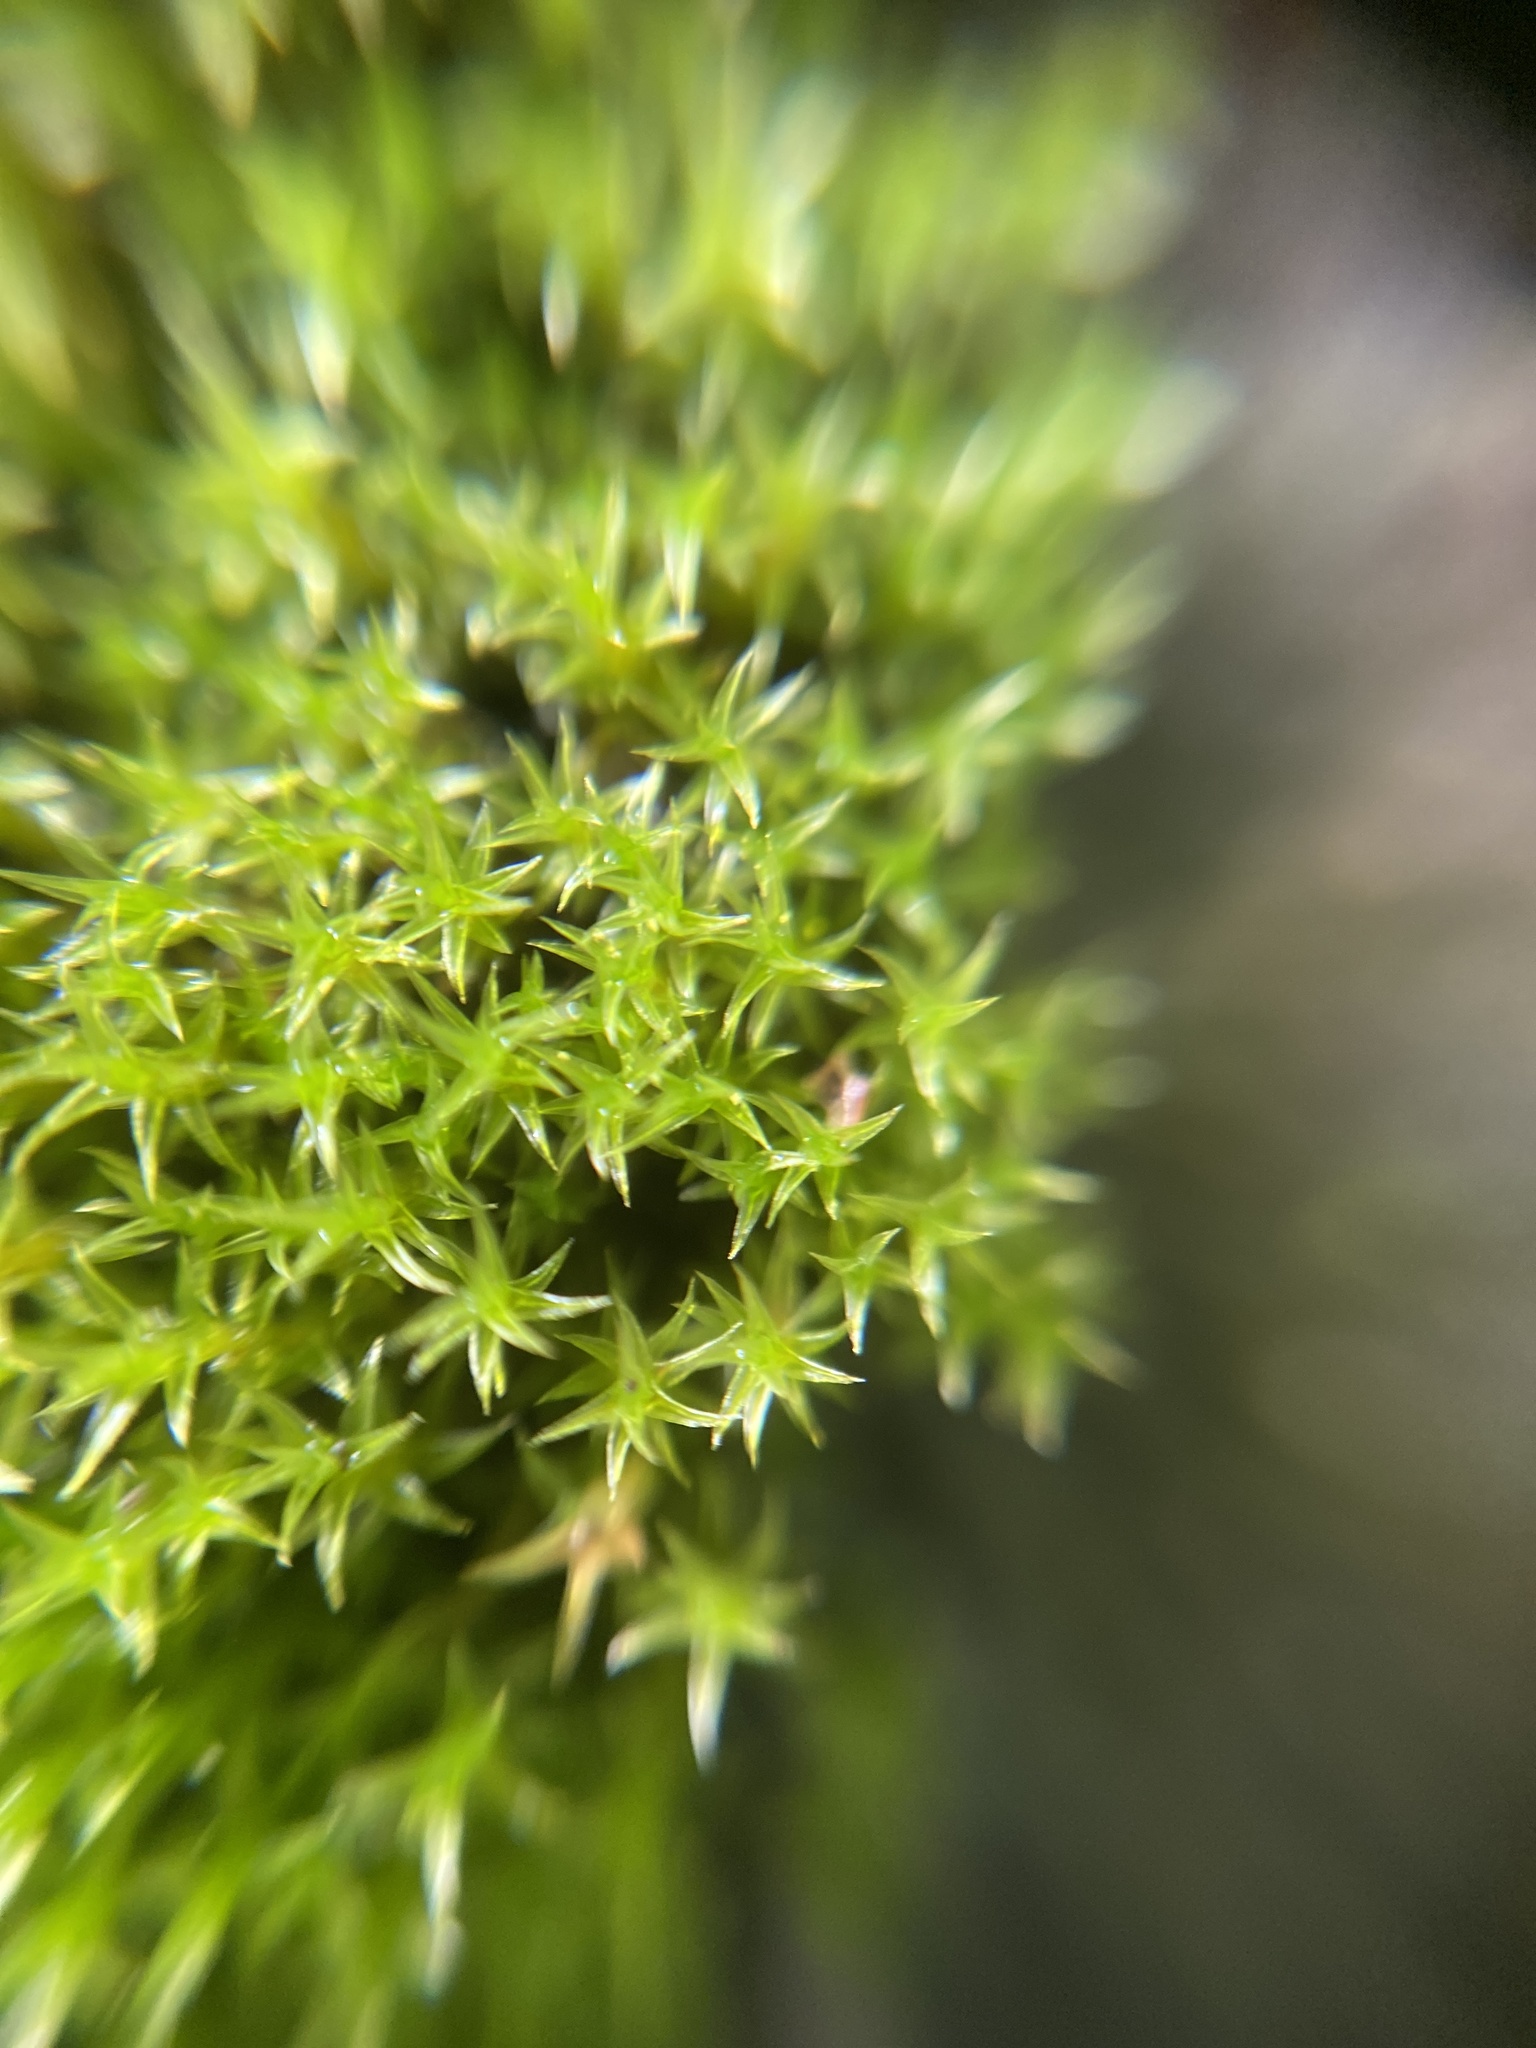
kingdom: Plantae
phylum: Bryophyta
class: Bryopsida
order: Dicranales
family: Ditrichaceae
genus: Ceratodon
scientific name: Ceratodon purpureus
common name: Redshank
